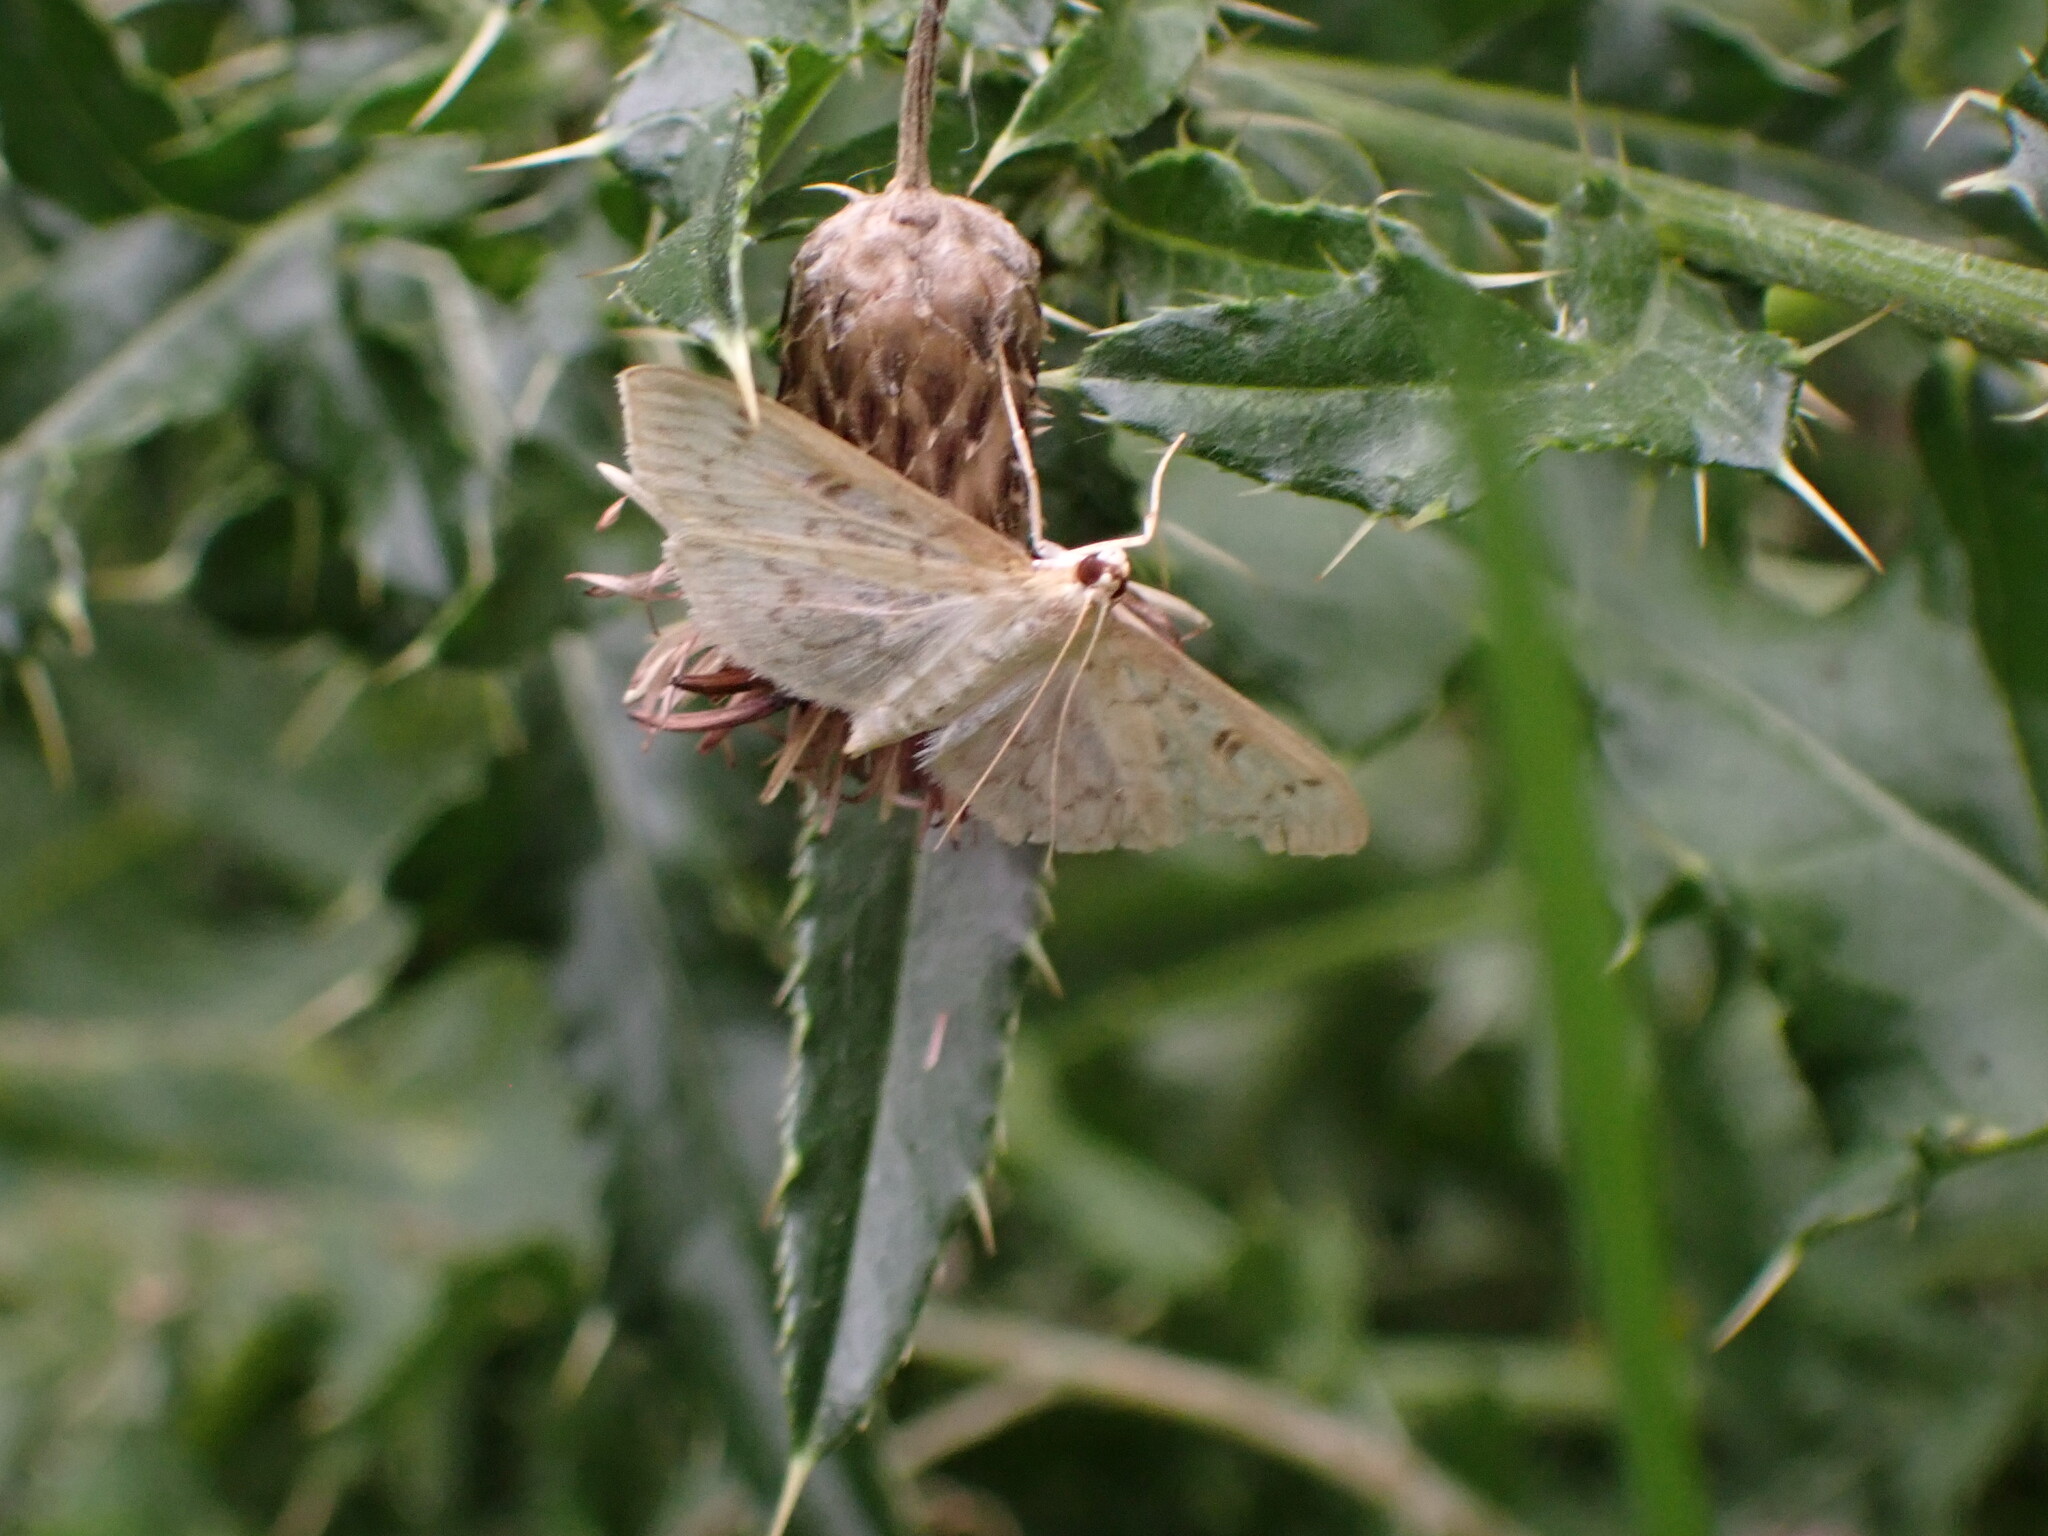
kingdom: Animalia
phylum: Arthropoda
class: Insecta
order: Lepidoptera
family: Crambidae
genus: Herpetogramma
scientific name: Herpetogramma aquilonalis
